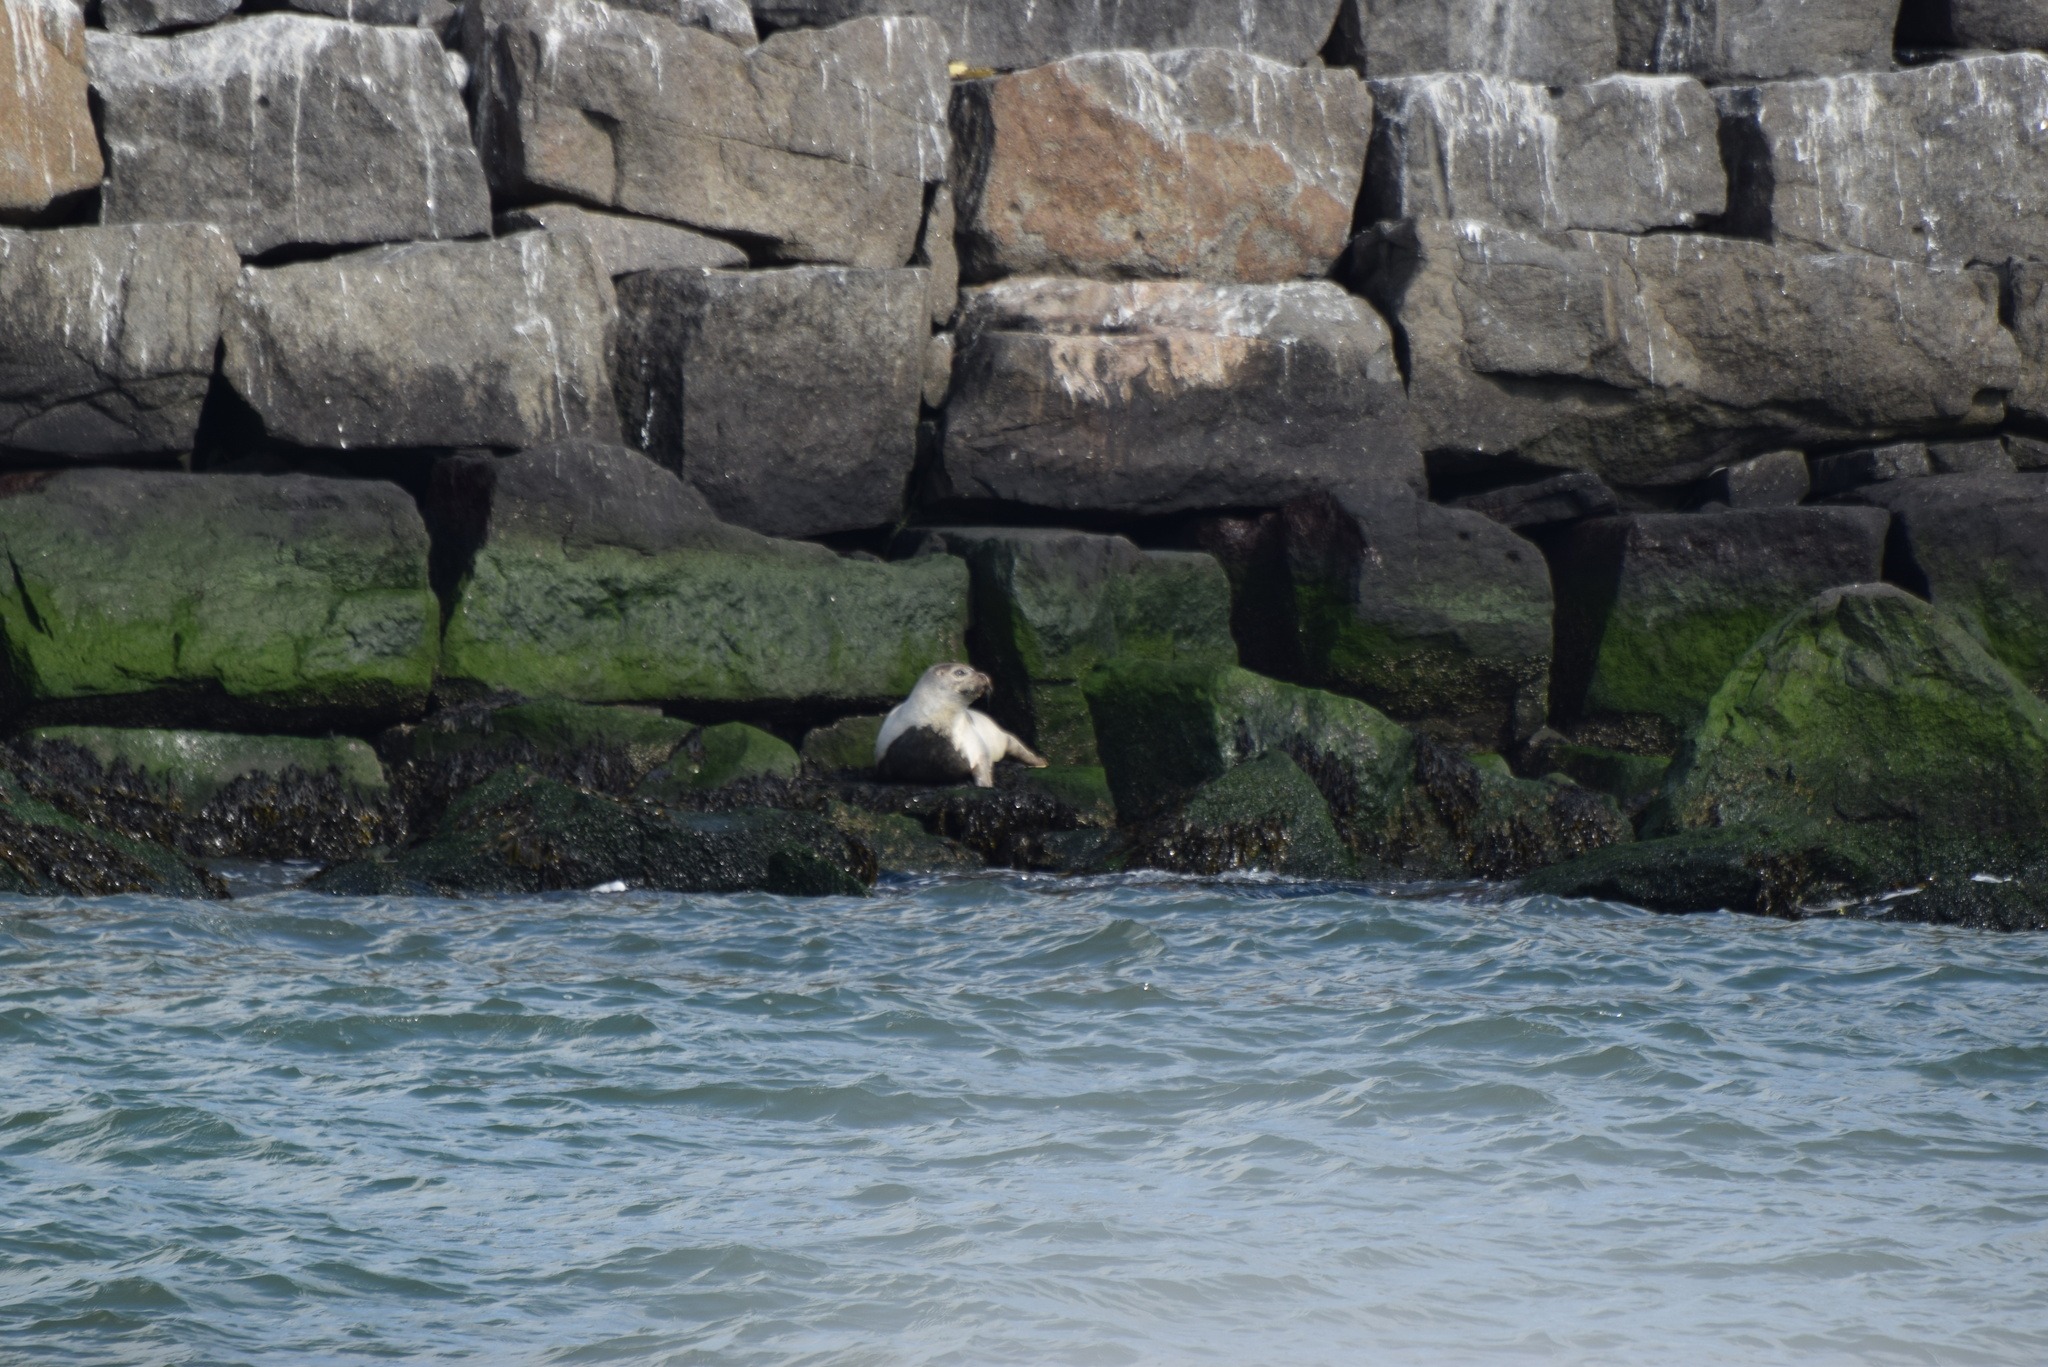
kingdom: Animalia
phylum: Chordata
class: Mammalia
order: Carnivora
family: Phocidae
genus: Phoca
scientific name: Phoca vitulina
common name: Harbor seal
